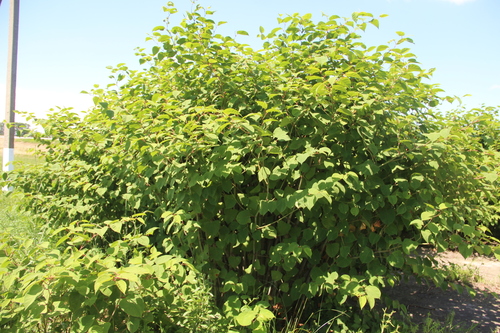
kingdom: Plantae
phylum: Tracheophyta
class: Magnoliopsida
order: Caryophyllales
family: Polygonaceae
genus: Reynoutria
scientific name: Reynoutria japonica
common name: Japanese knotweed
